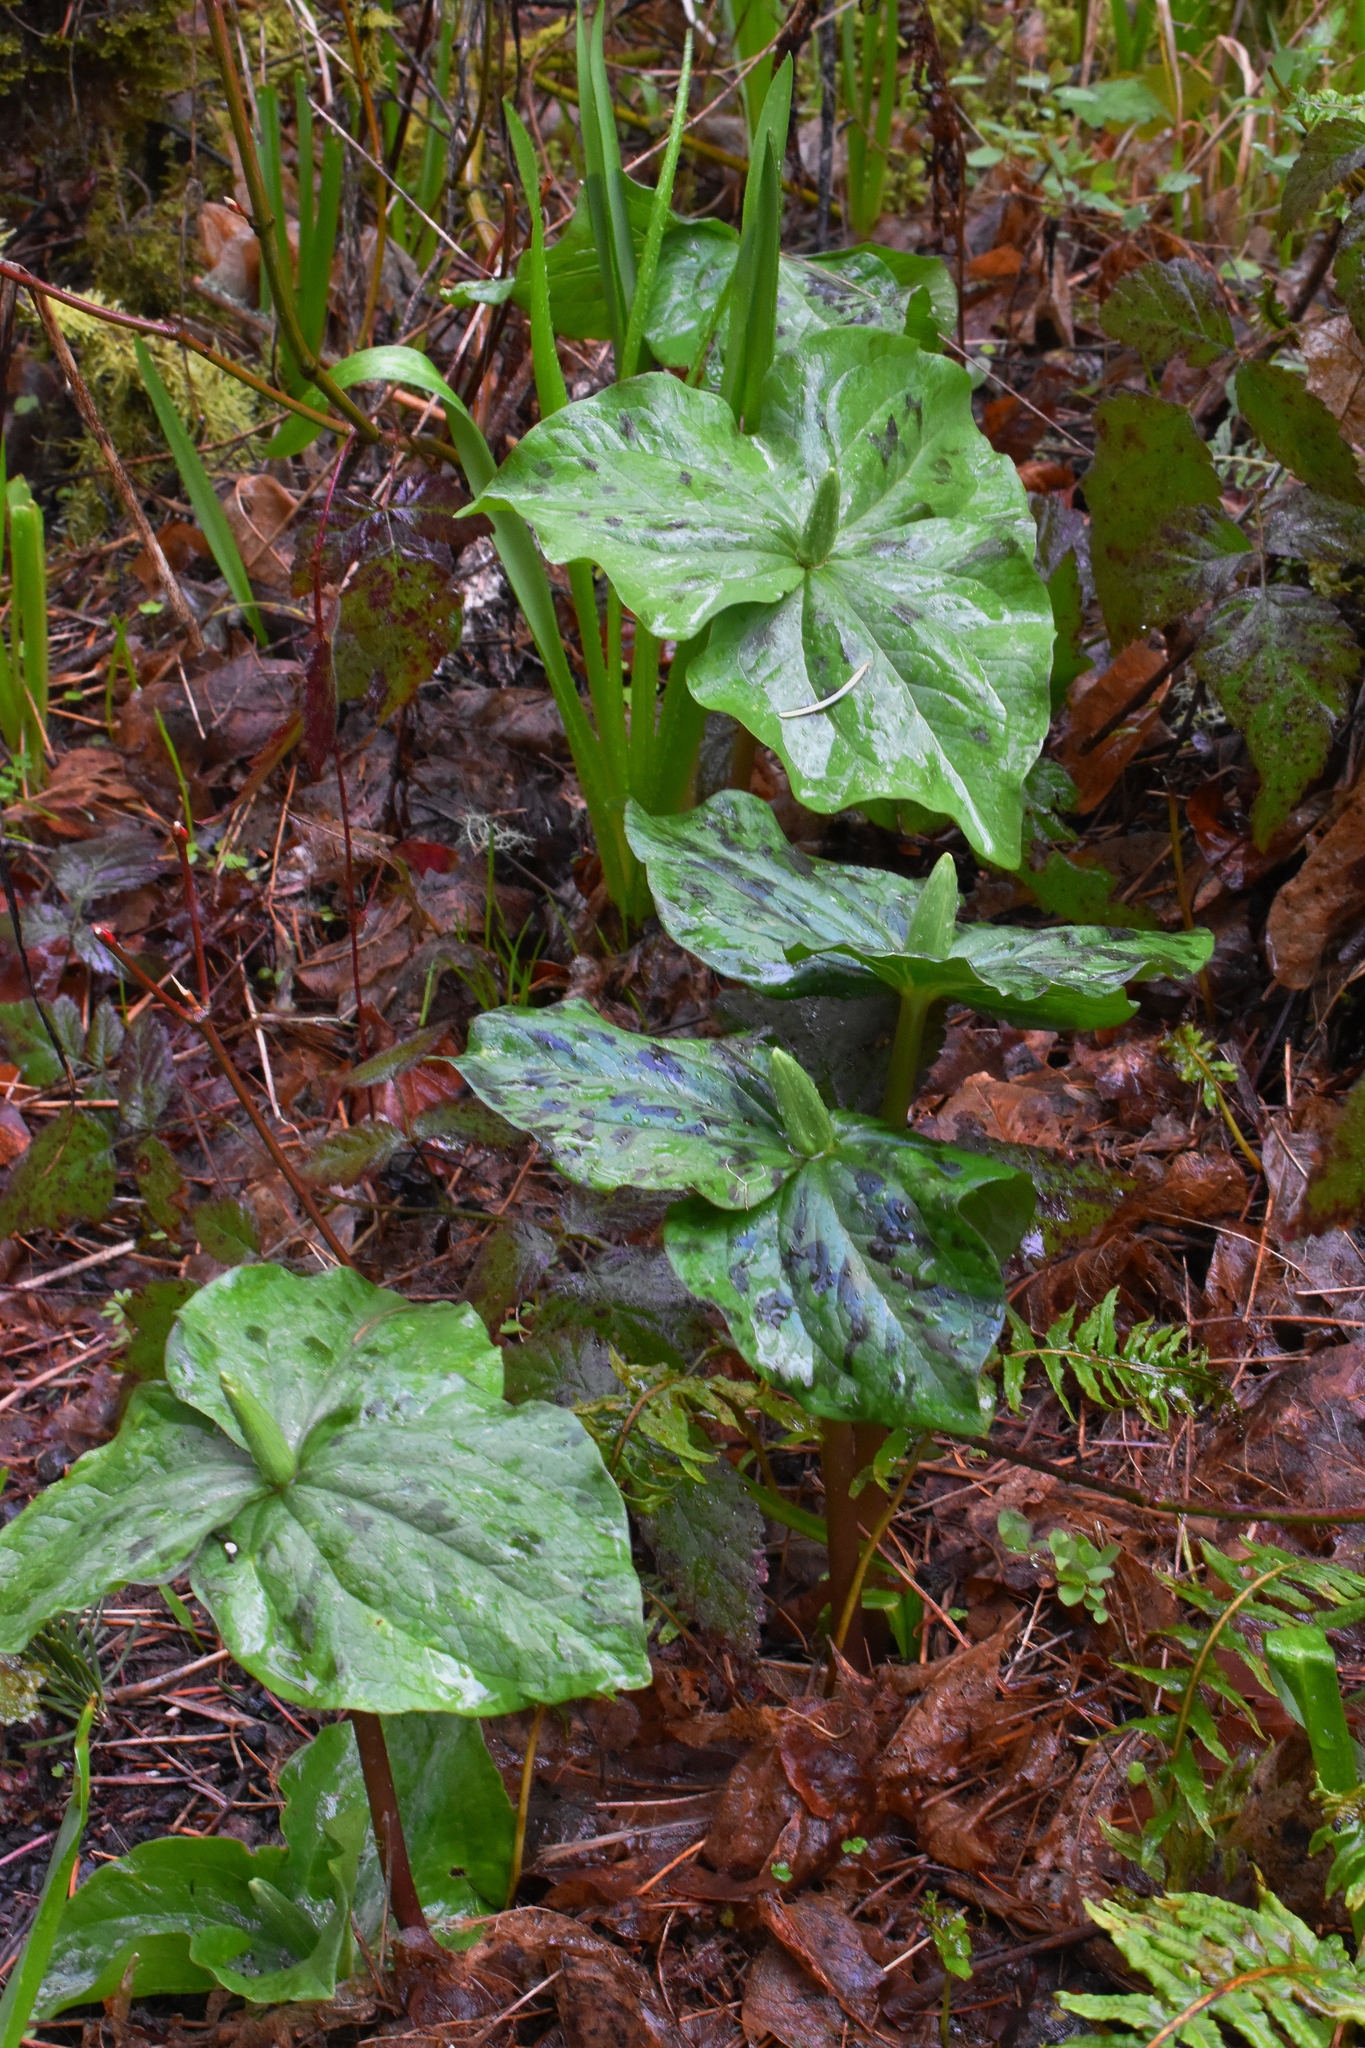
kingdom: Plantae
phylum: Tracheophyta
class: Liliopsida
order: Liliales
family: Melanthiaceae
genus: Trillium
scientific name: Trillium albidum
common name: Freeman's trillium
